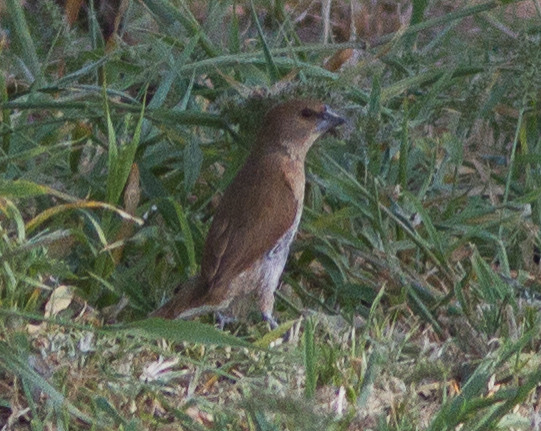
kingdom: Animalia
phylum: Chordata
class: Aves
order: Passeriformes
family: Estrildidae
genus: Lonchura
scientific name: Lonchura punctulata
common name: Scaly-breasted munia
